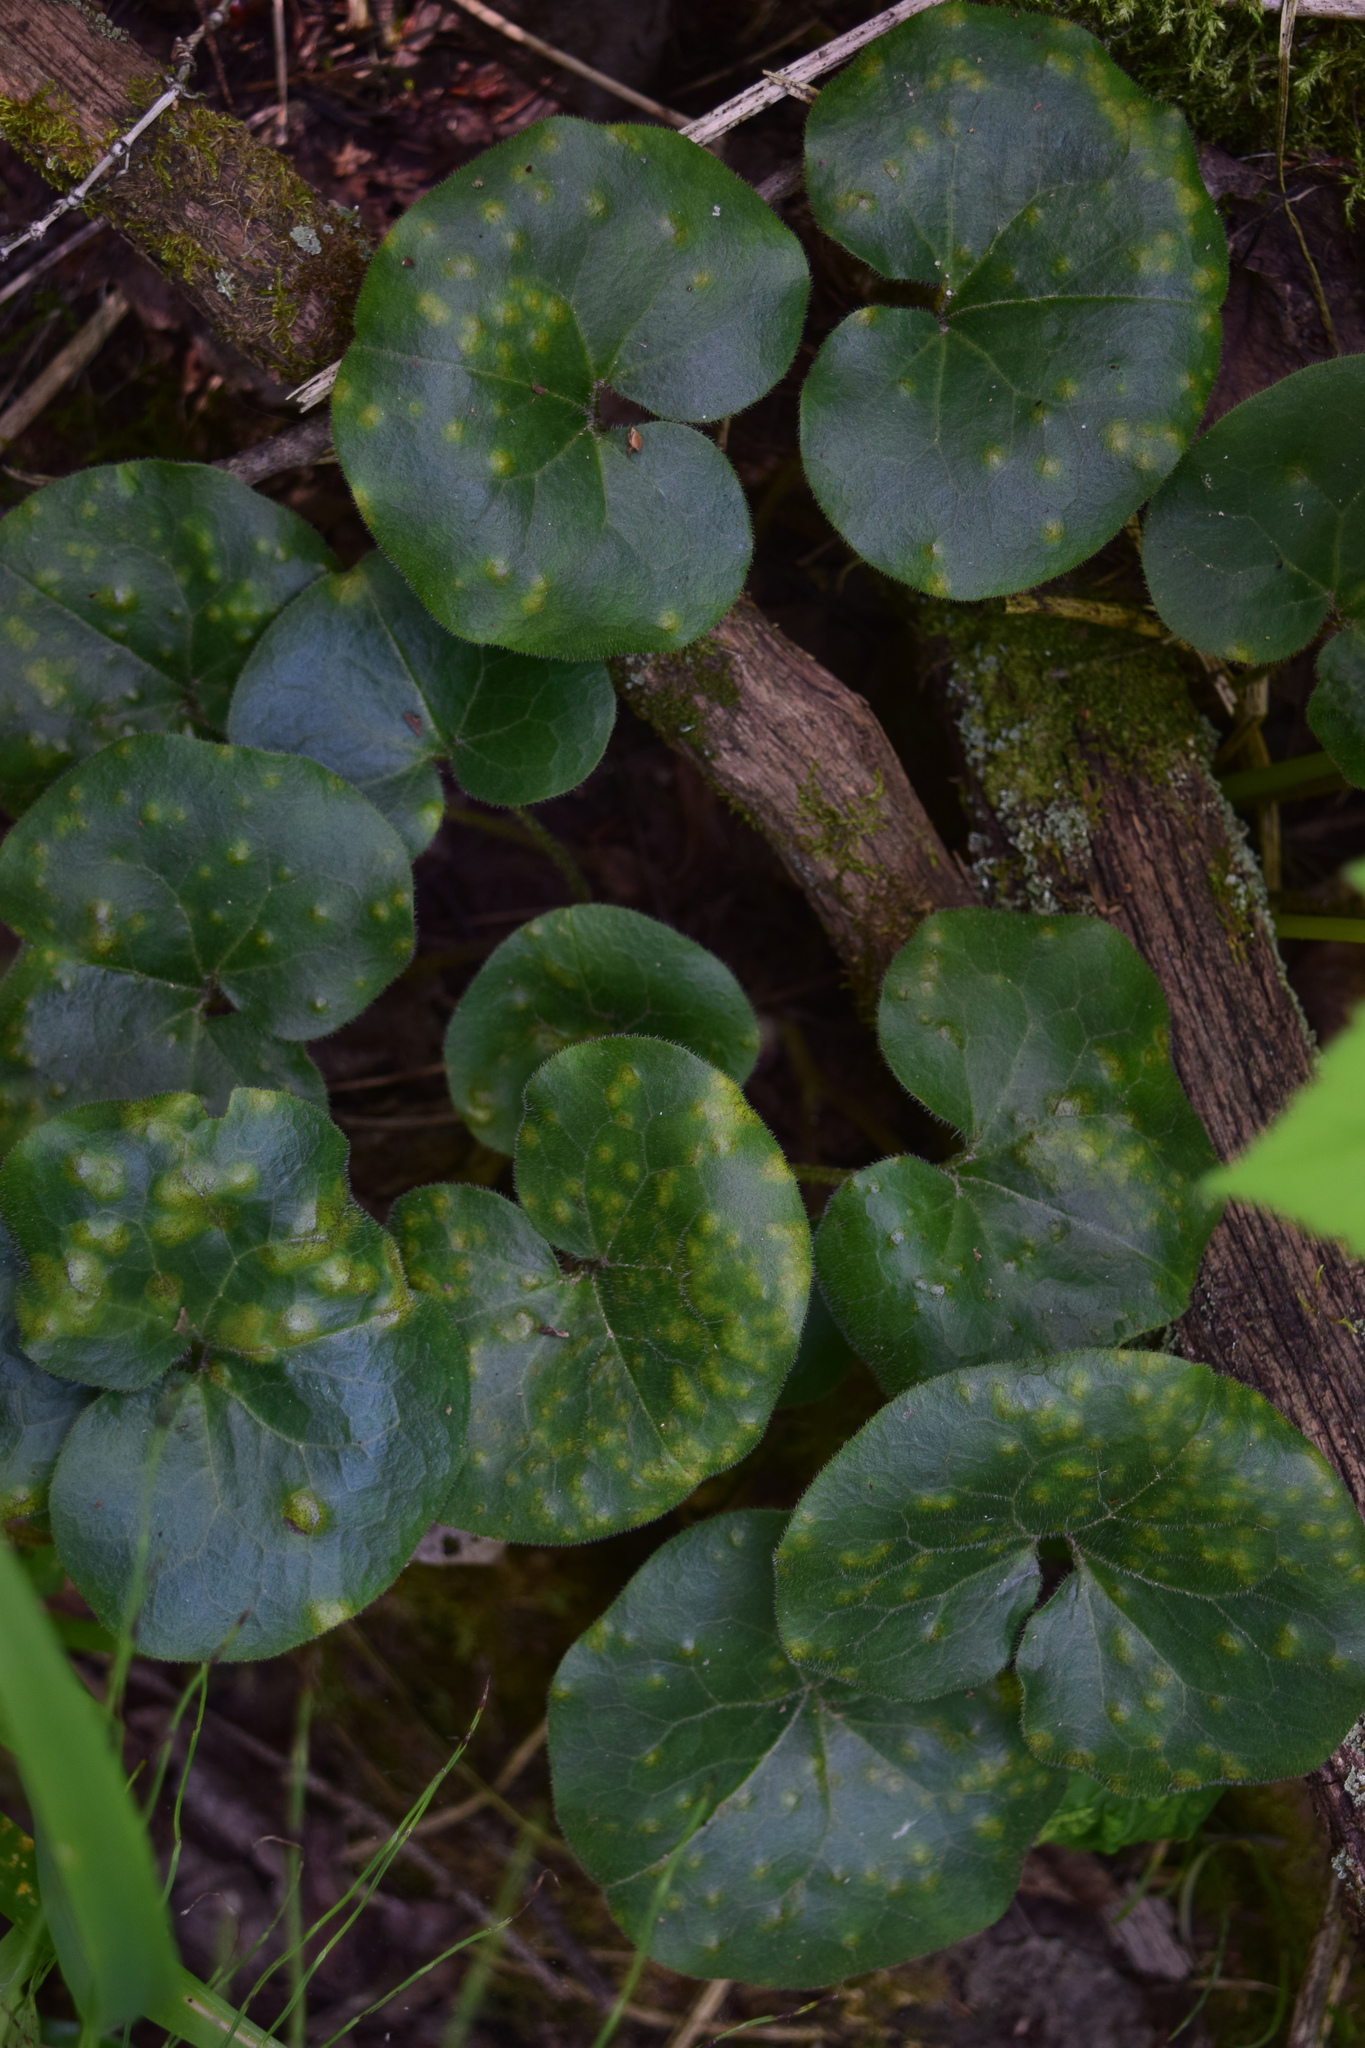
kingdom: Plantae
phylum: Tracheophyta
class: Magnoliopsida
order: Piperales
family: Aristolochiaceae
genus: Asarum
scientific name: Asarum europaeum
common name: Asarabacca
